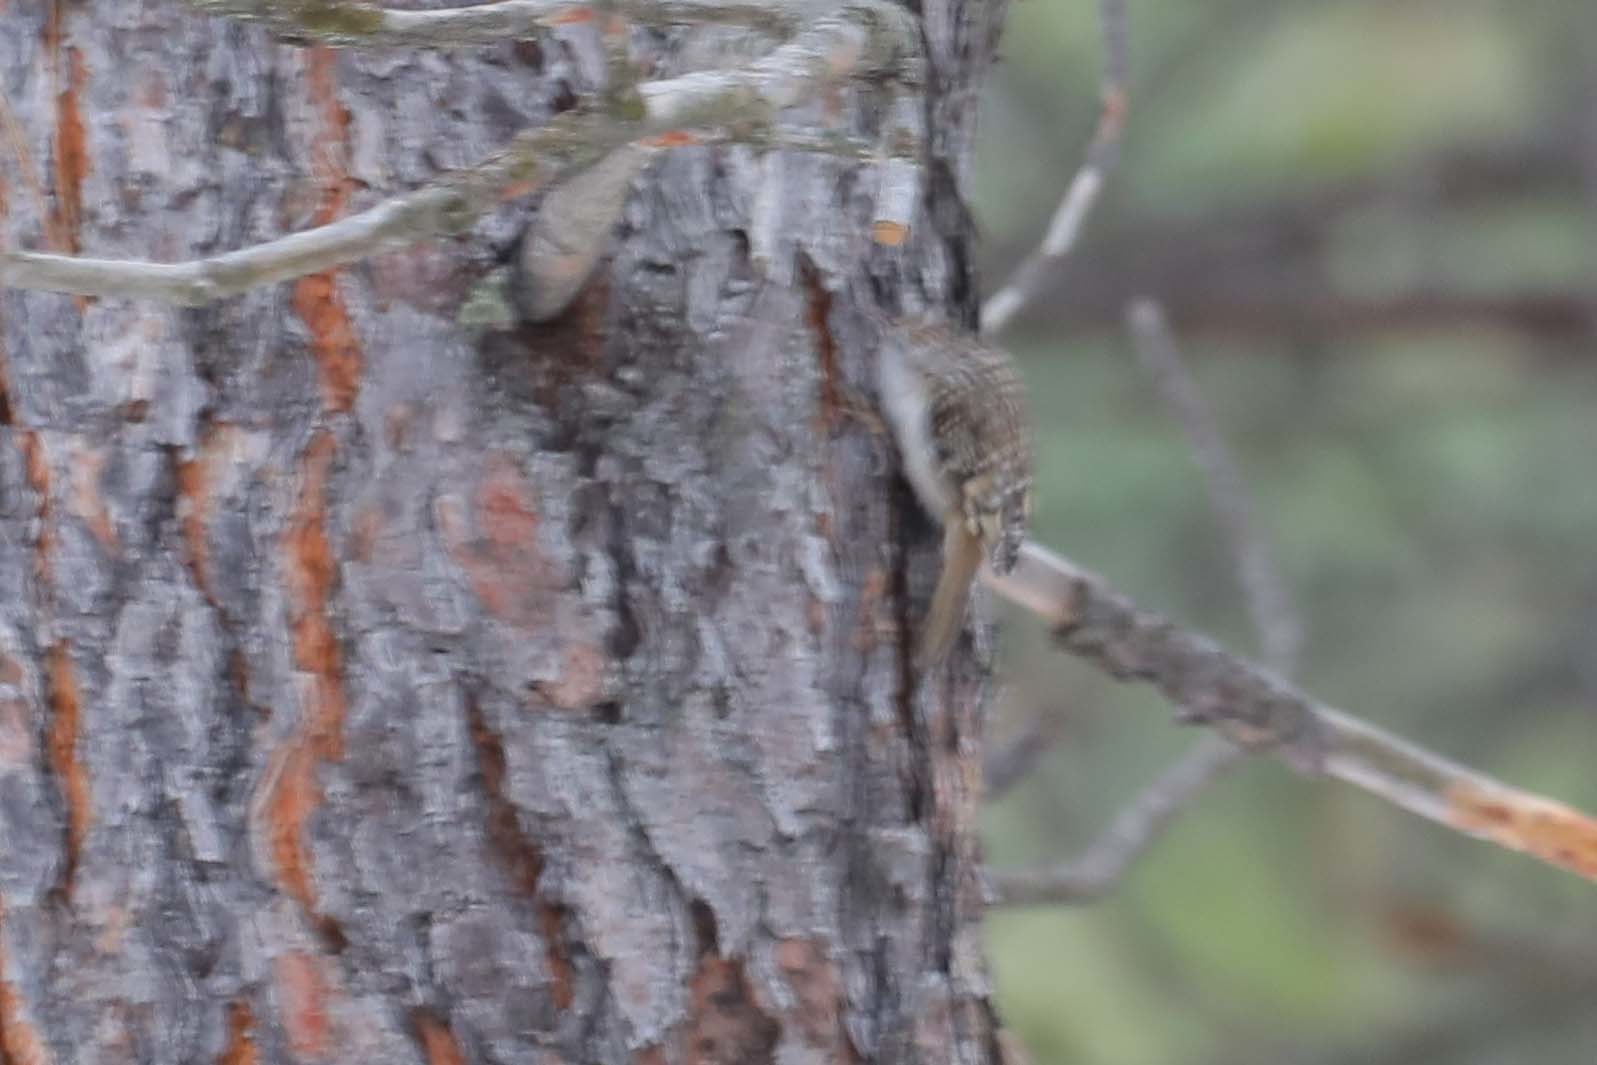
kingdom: Animalia
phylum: Chordata
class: Aves
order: Passeriformes
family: Certhiidae
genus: Certhia
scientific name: Certhia americana
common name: Brown creeper
